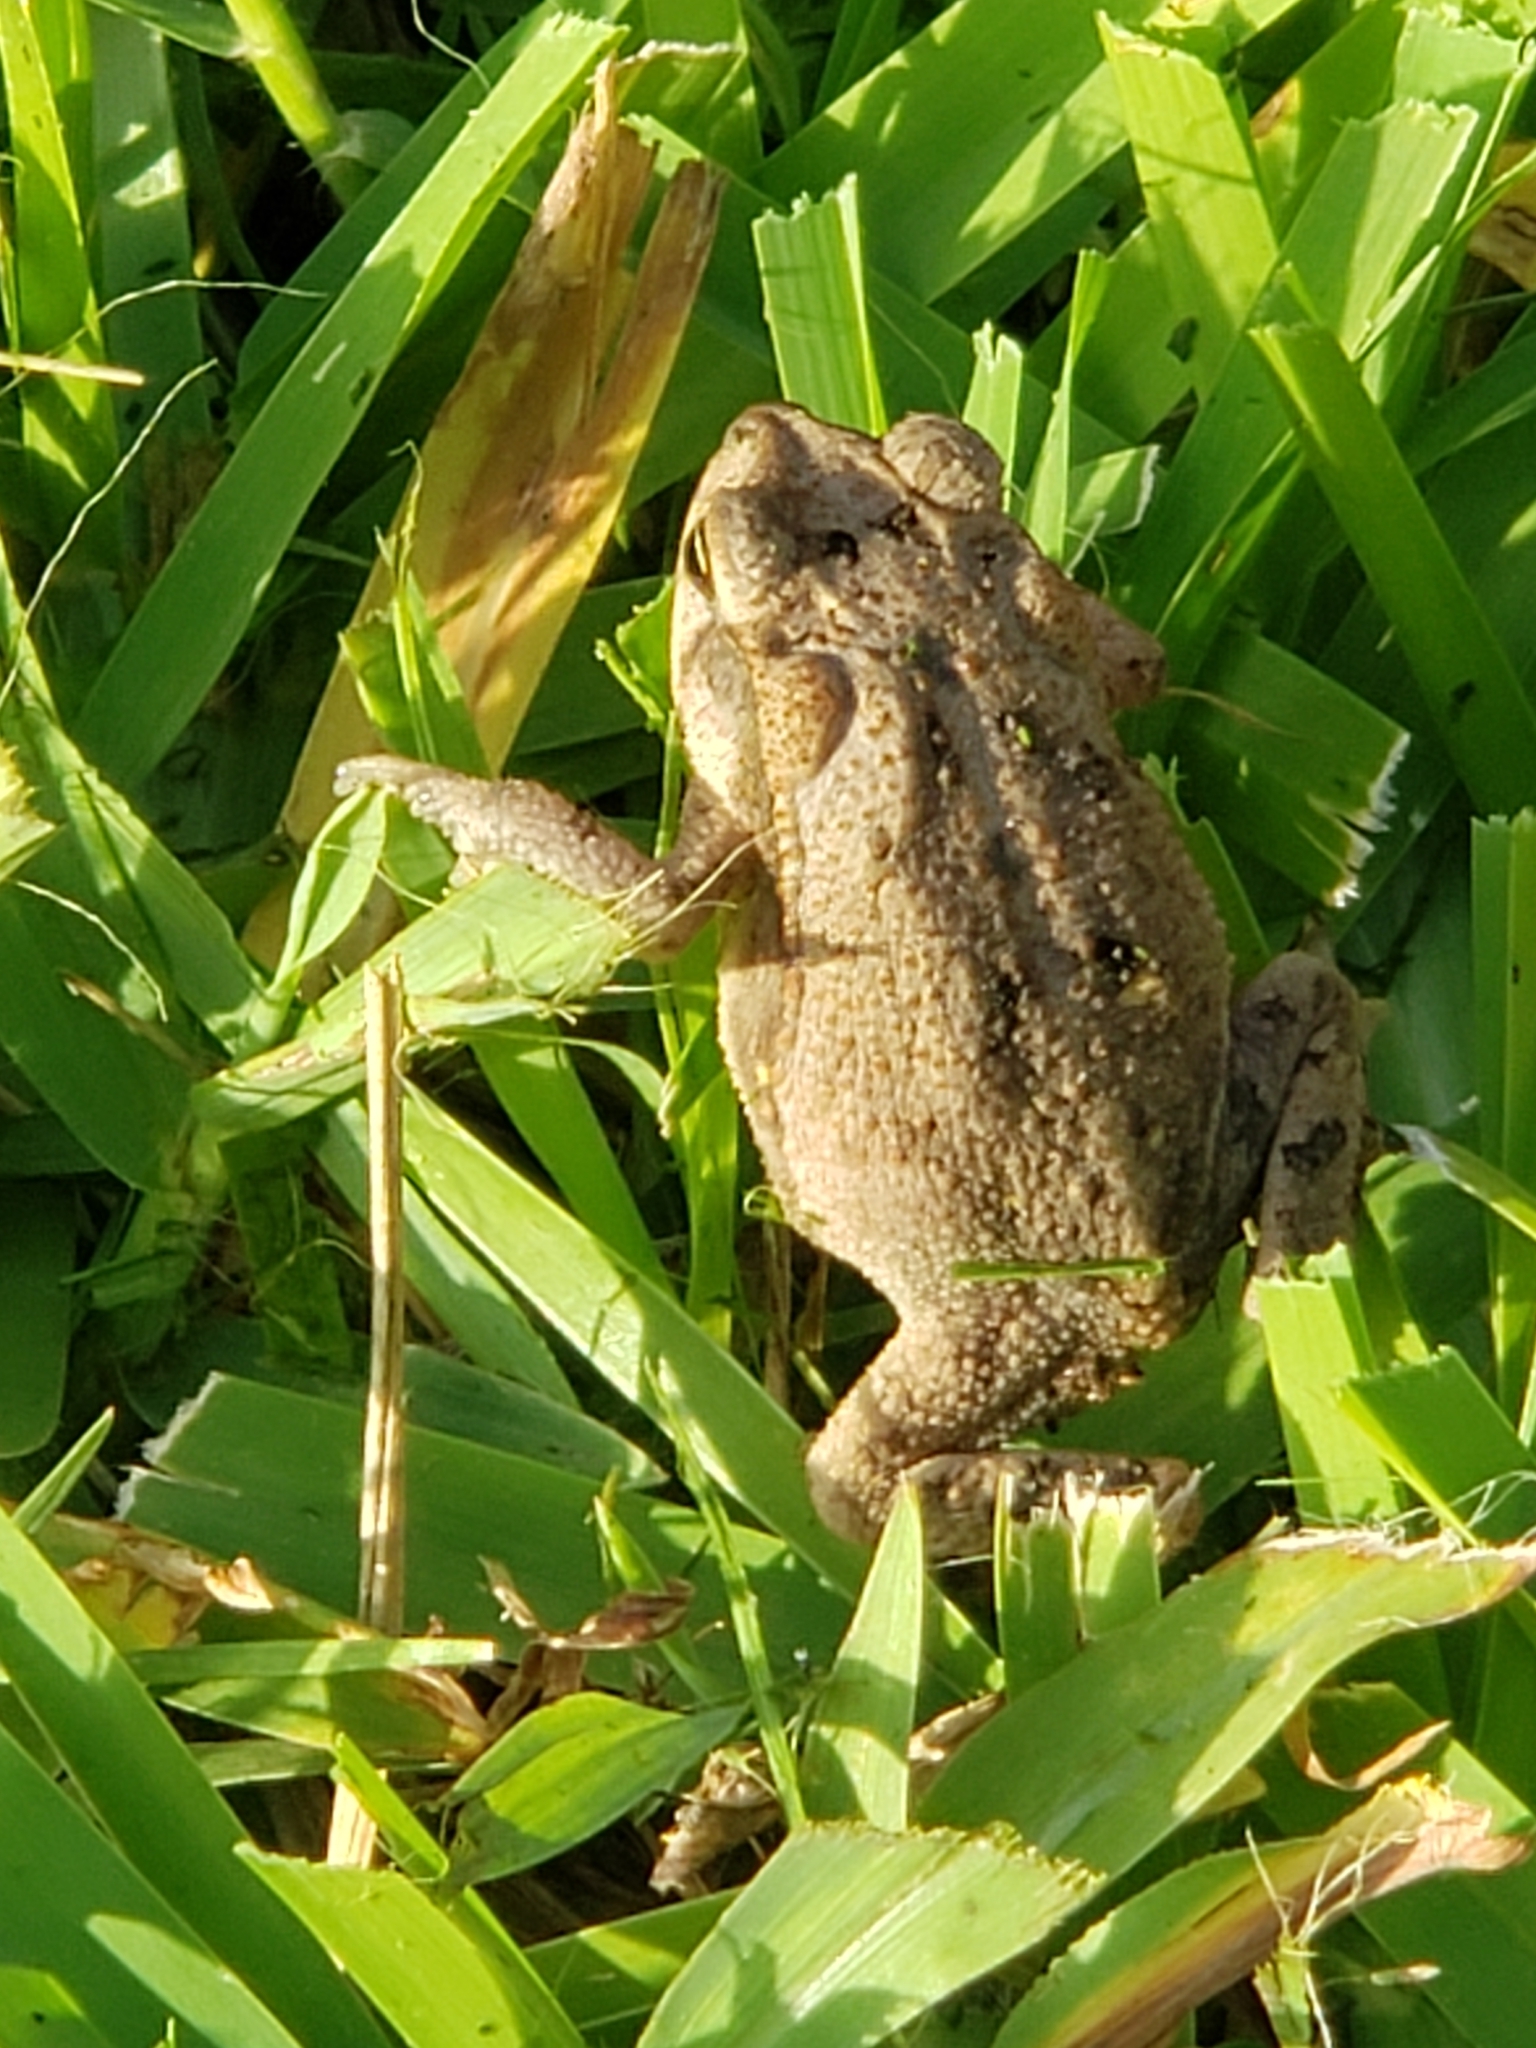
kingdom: Animalia
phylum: Chordata
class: Amphibia
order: Anura
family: Bufonidae
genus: Incilius
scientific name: Incilius nebulifer
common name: Gulf coast toad
